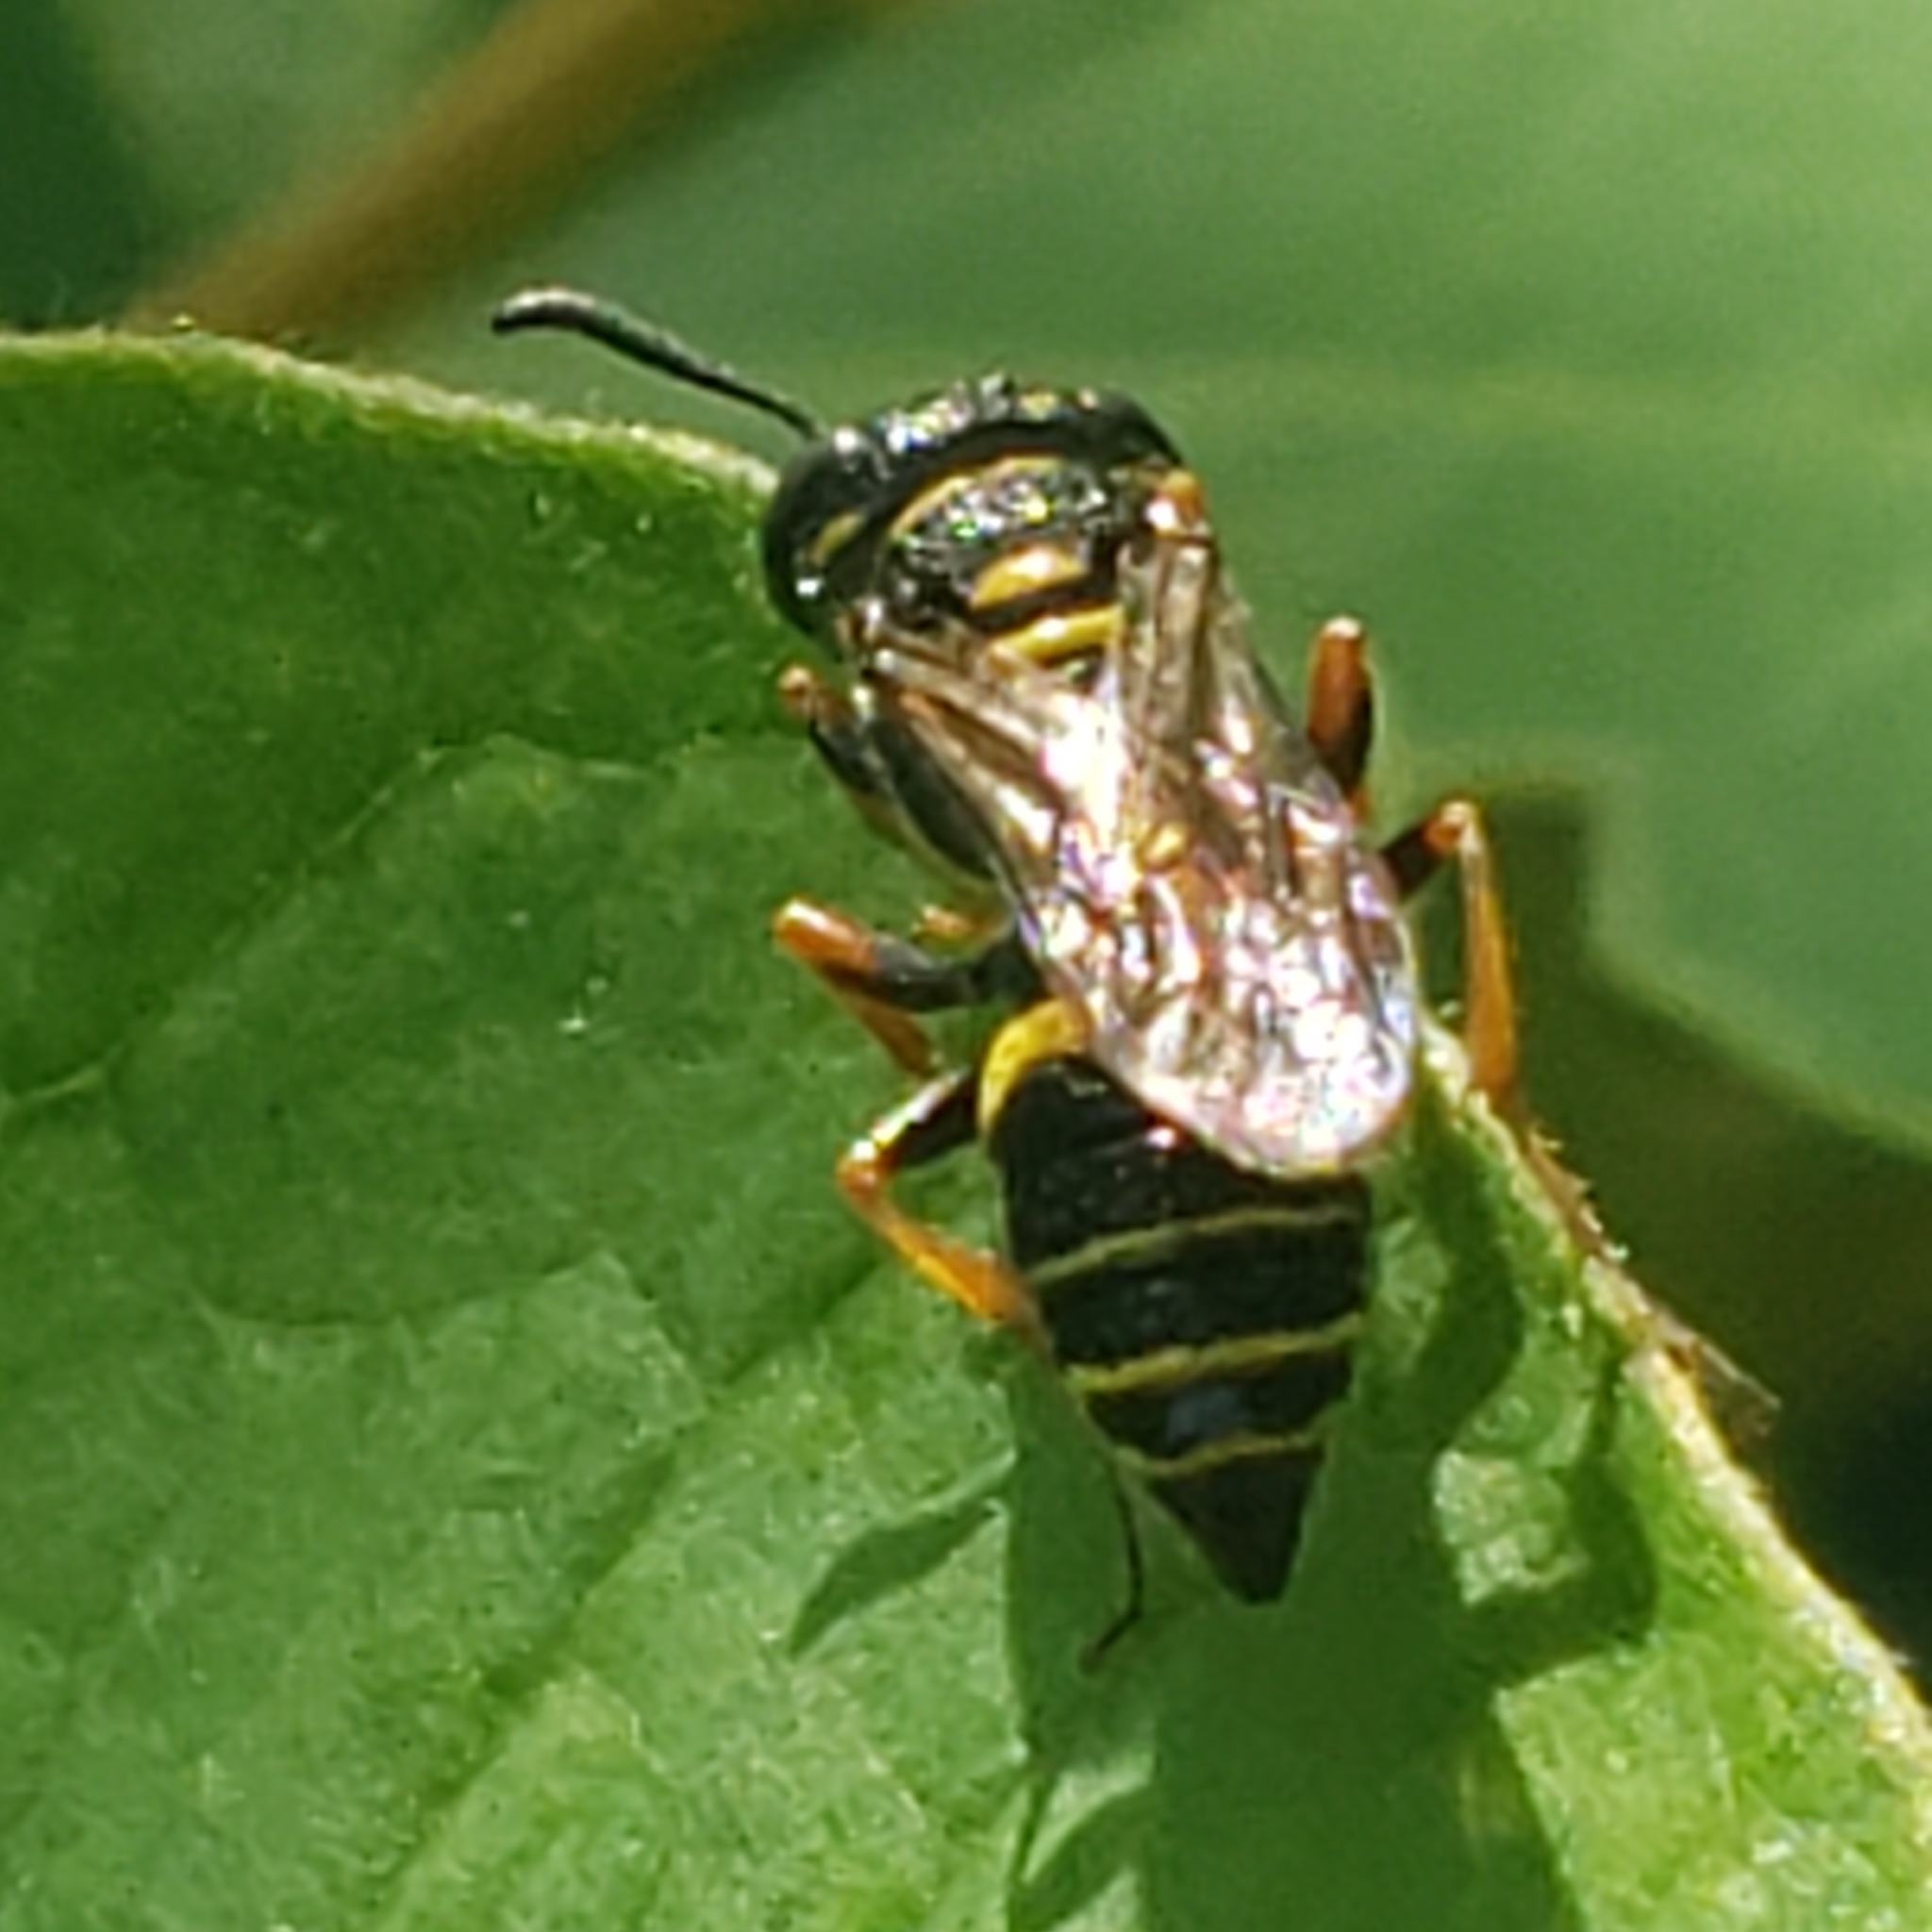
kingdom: Animalia
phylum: Arthropoda
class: Insecta
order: Hymenoptera
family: Crabronidae
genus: Philanthus
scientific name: Philanthus gibbosus
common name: Humped beewolf
